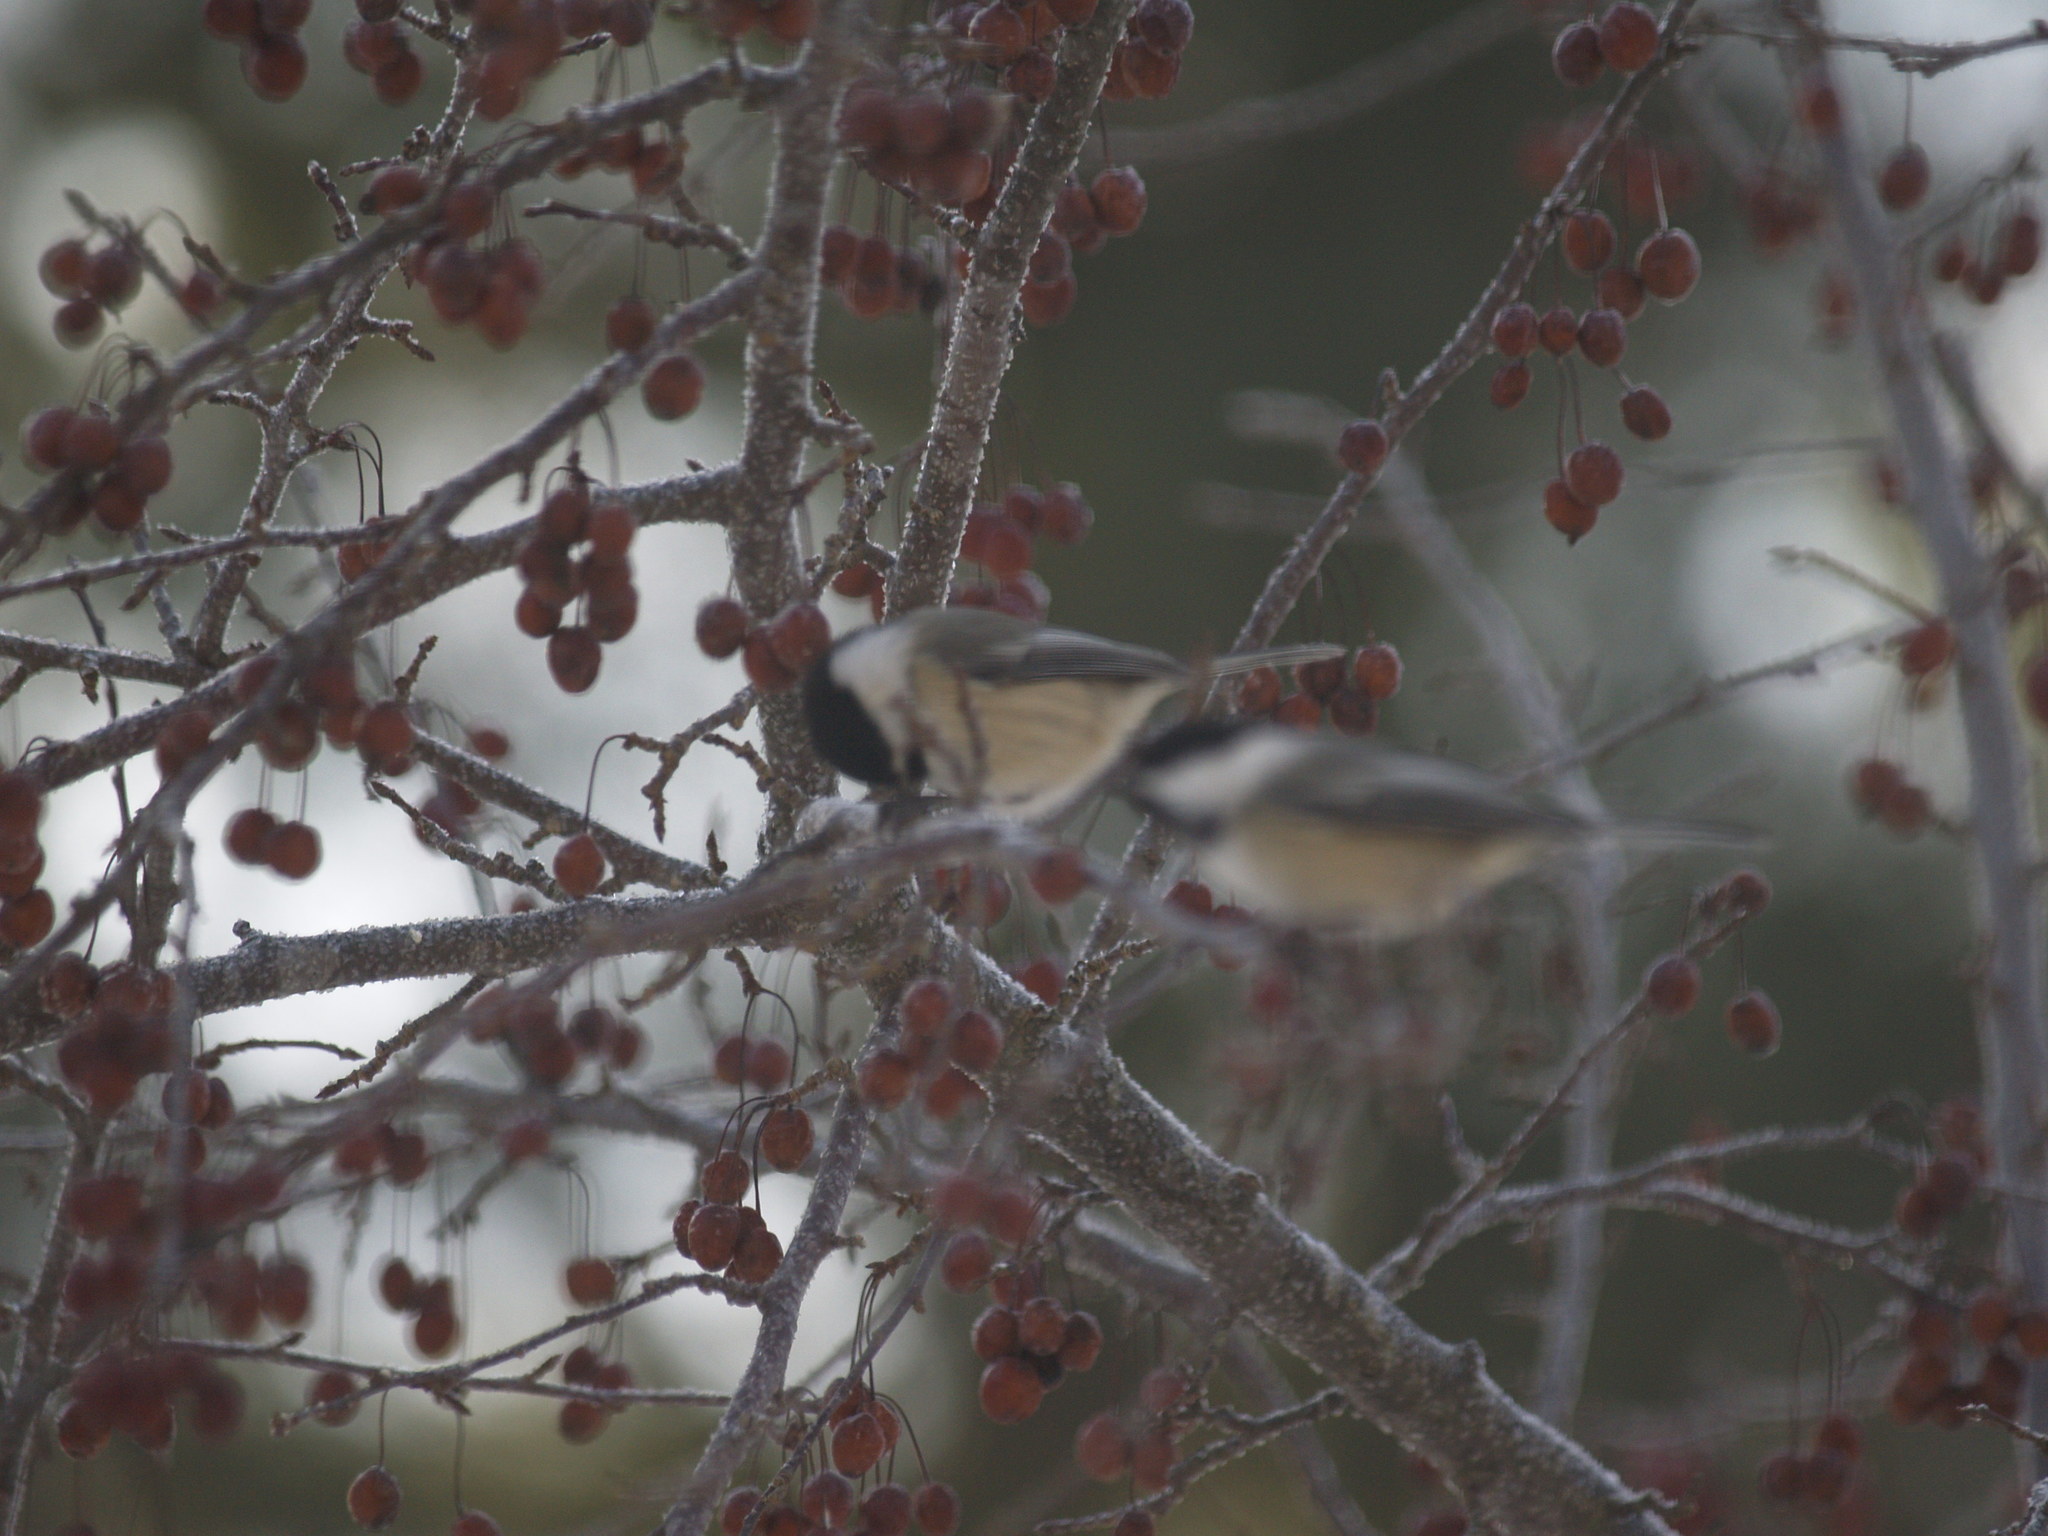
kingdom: Animalia
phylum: Chordata
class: Aves
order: Passeriformes
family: Paridae
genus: Poecile
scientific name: Poecile atricapillus
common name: Black-capped chickadee
